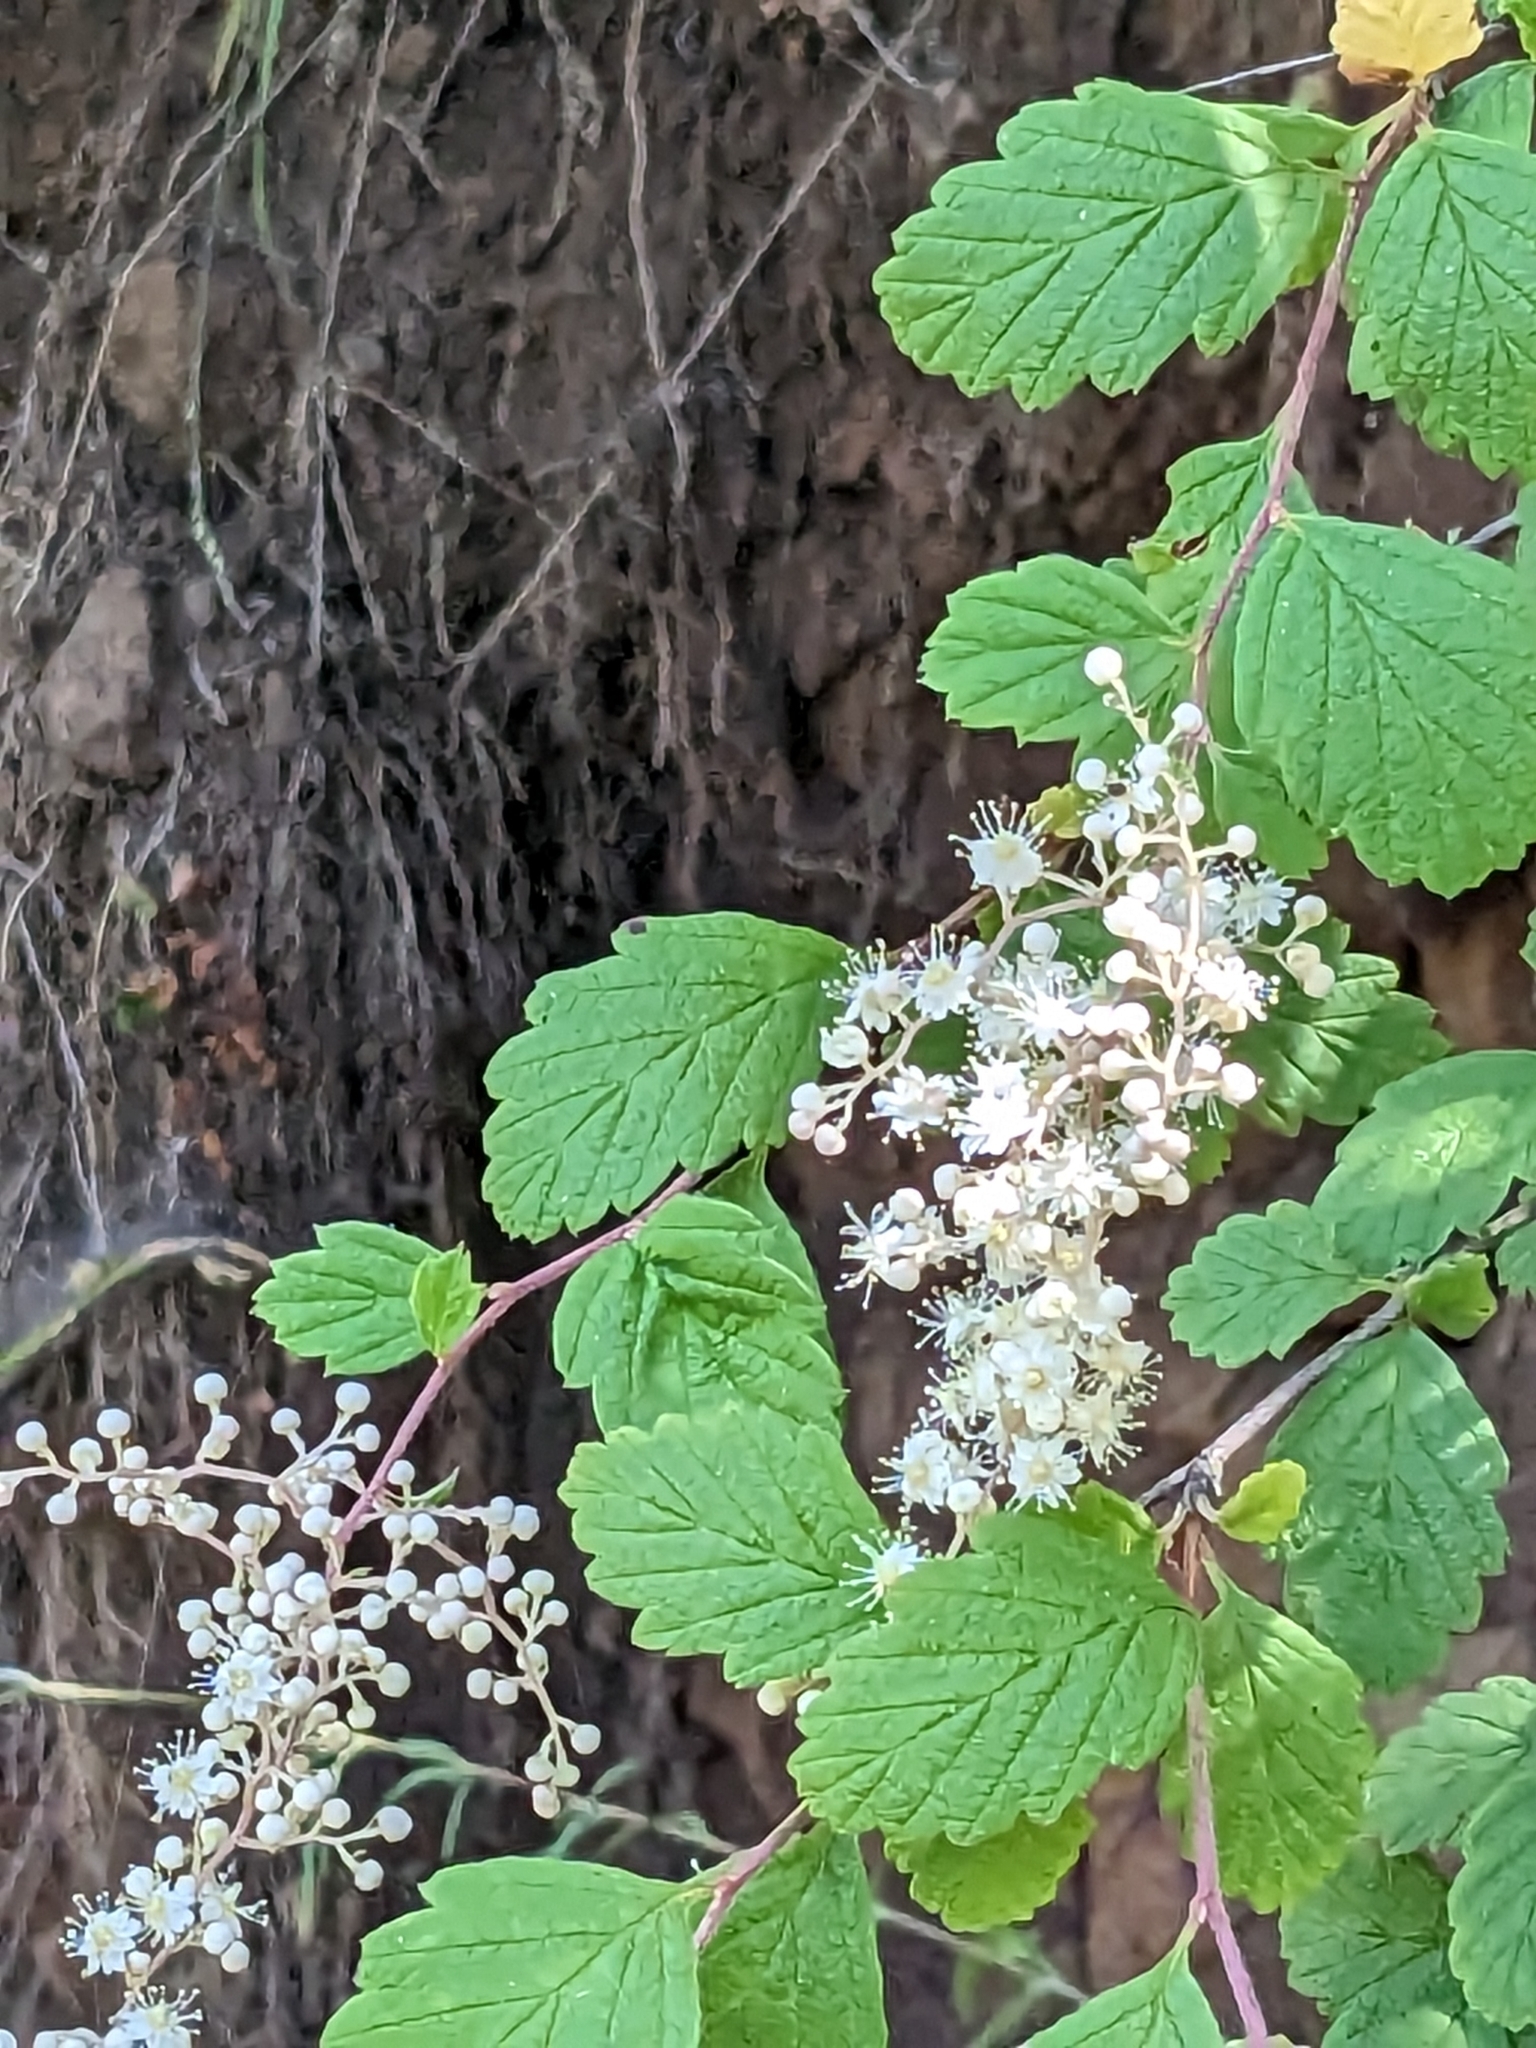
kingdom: Plantae
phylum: Tracheophyta
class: Magnoliopsida
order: Rosales
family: Rosaceae
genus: Holodiscus
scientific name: Holodiscus discolor
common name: Oceanspray
